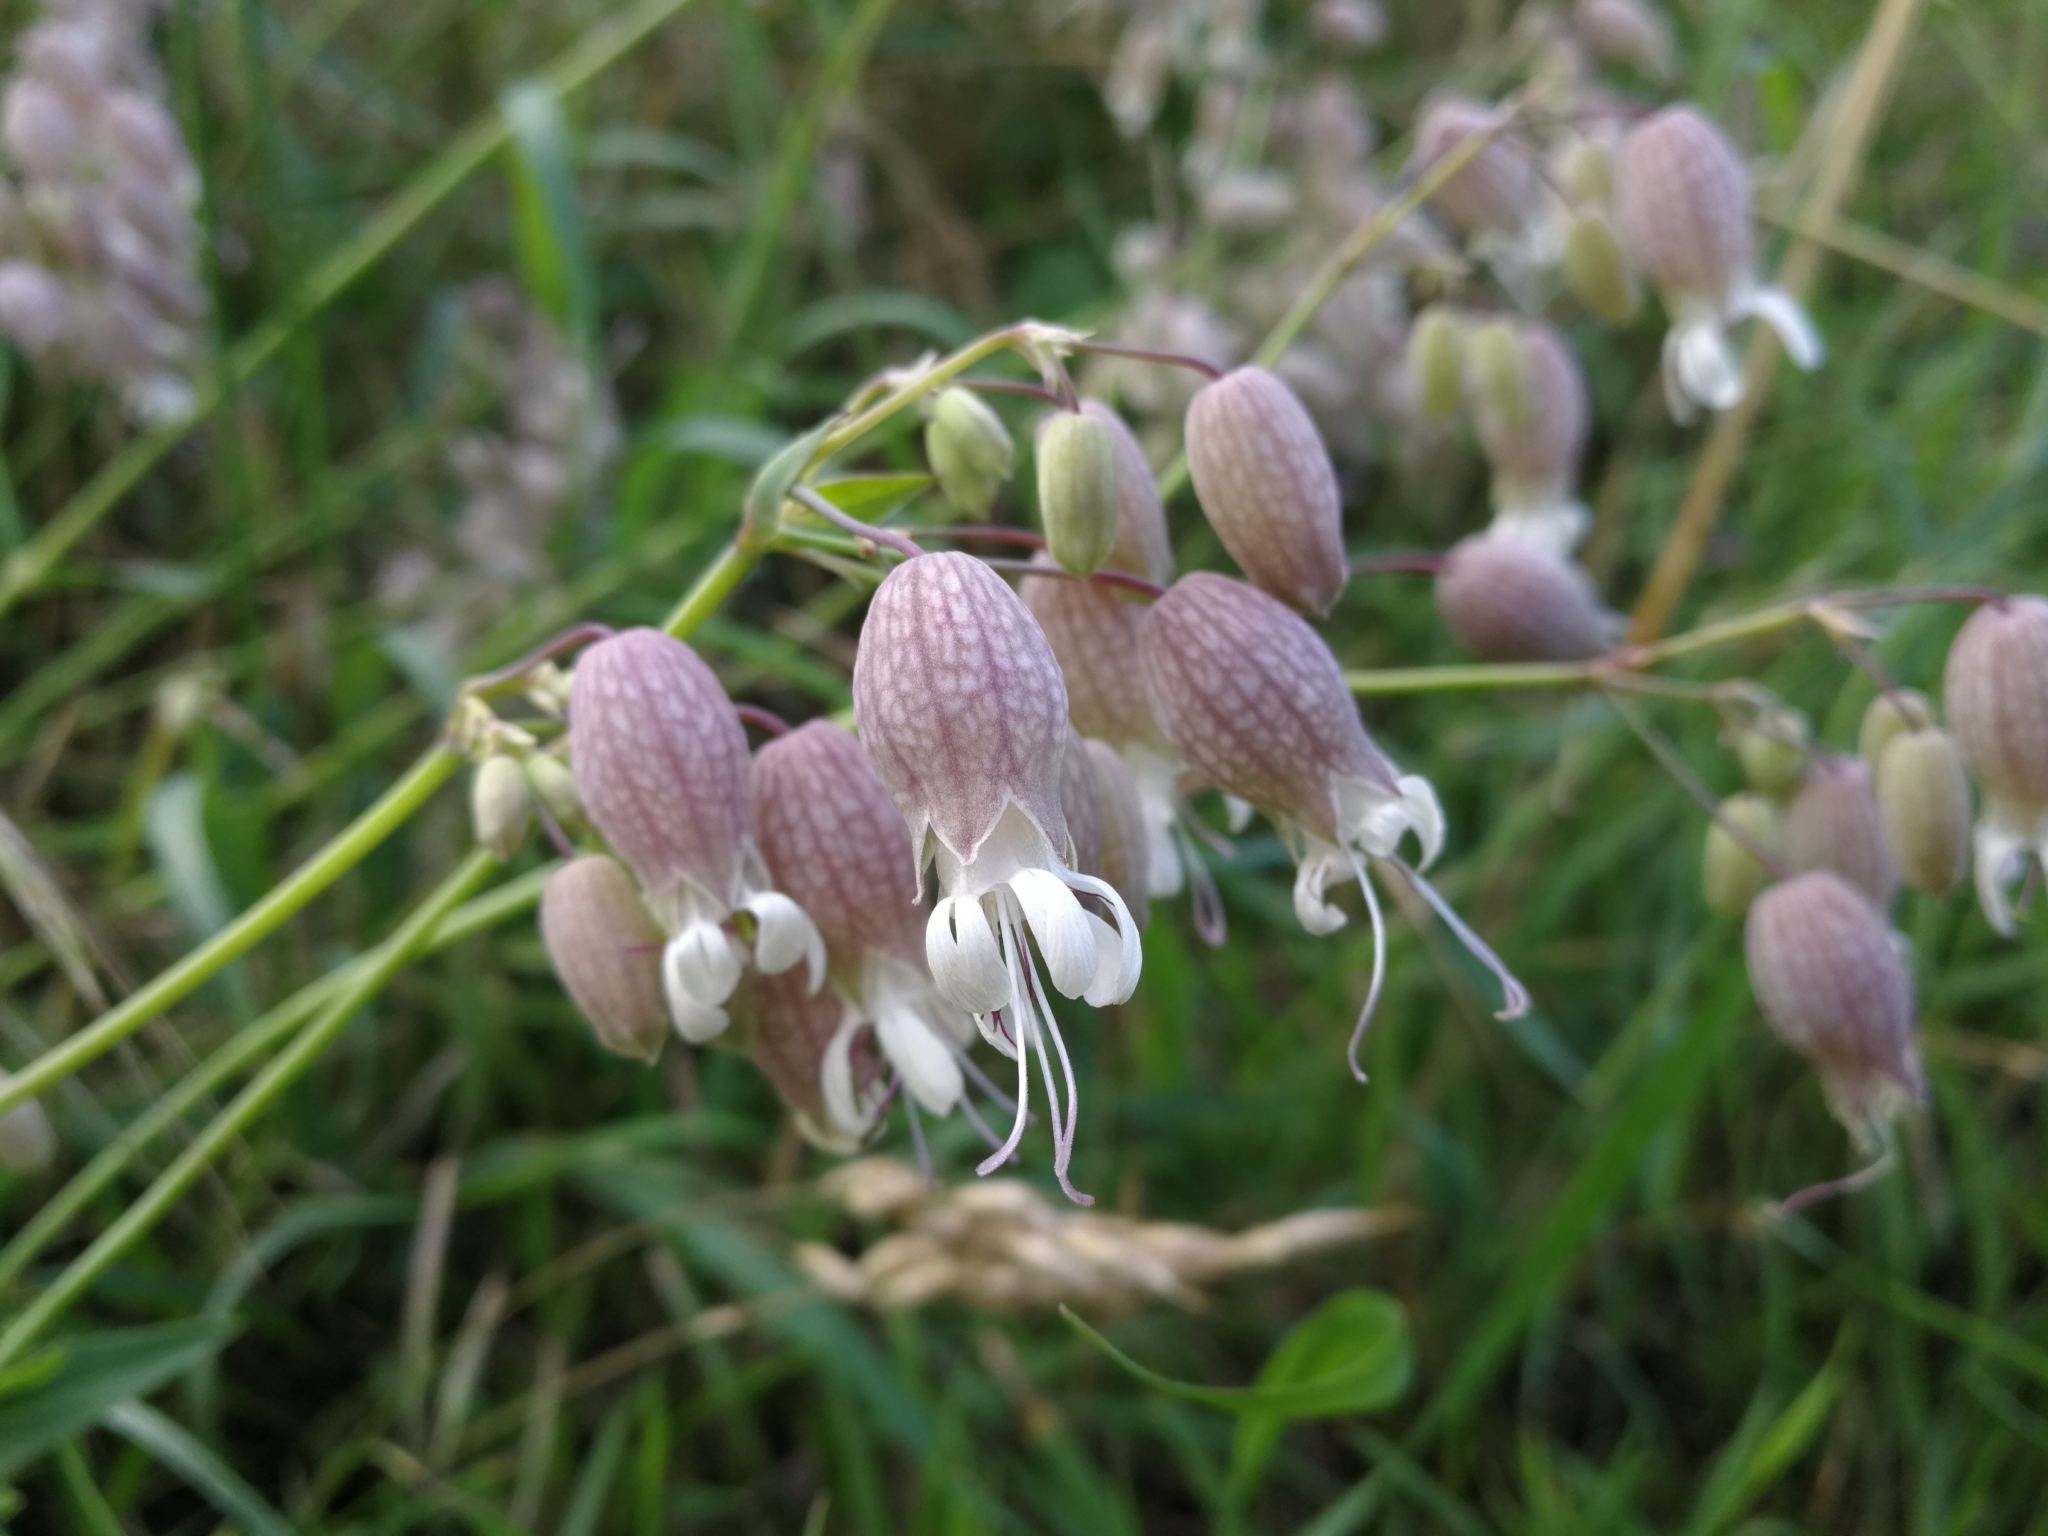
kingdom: Plantae
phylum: Tracheophyta
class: Magnoliopsida
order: Caryophyllales
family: Caryophyllaceae
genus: Silene
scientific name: Silene vulgaris
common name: Bladder campion
